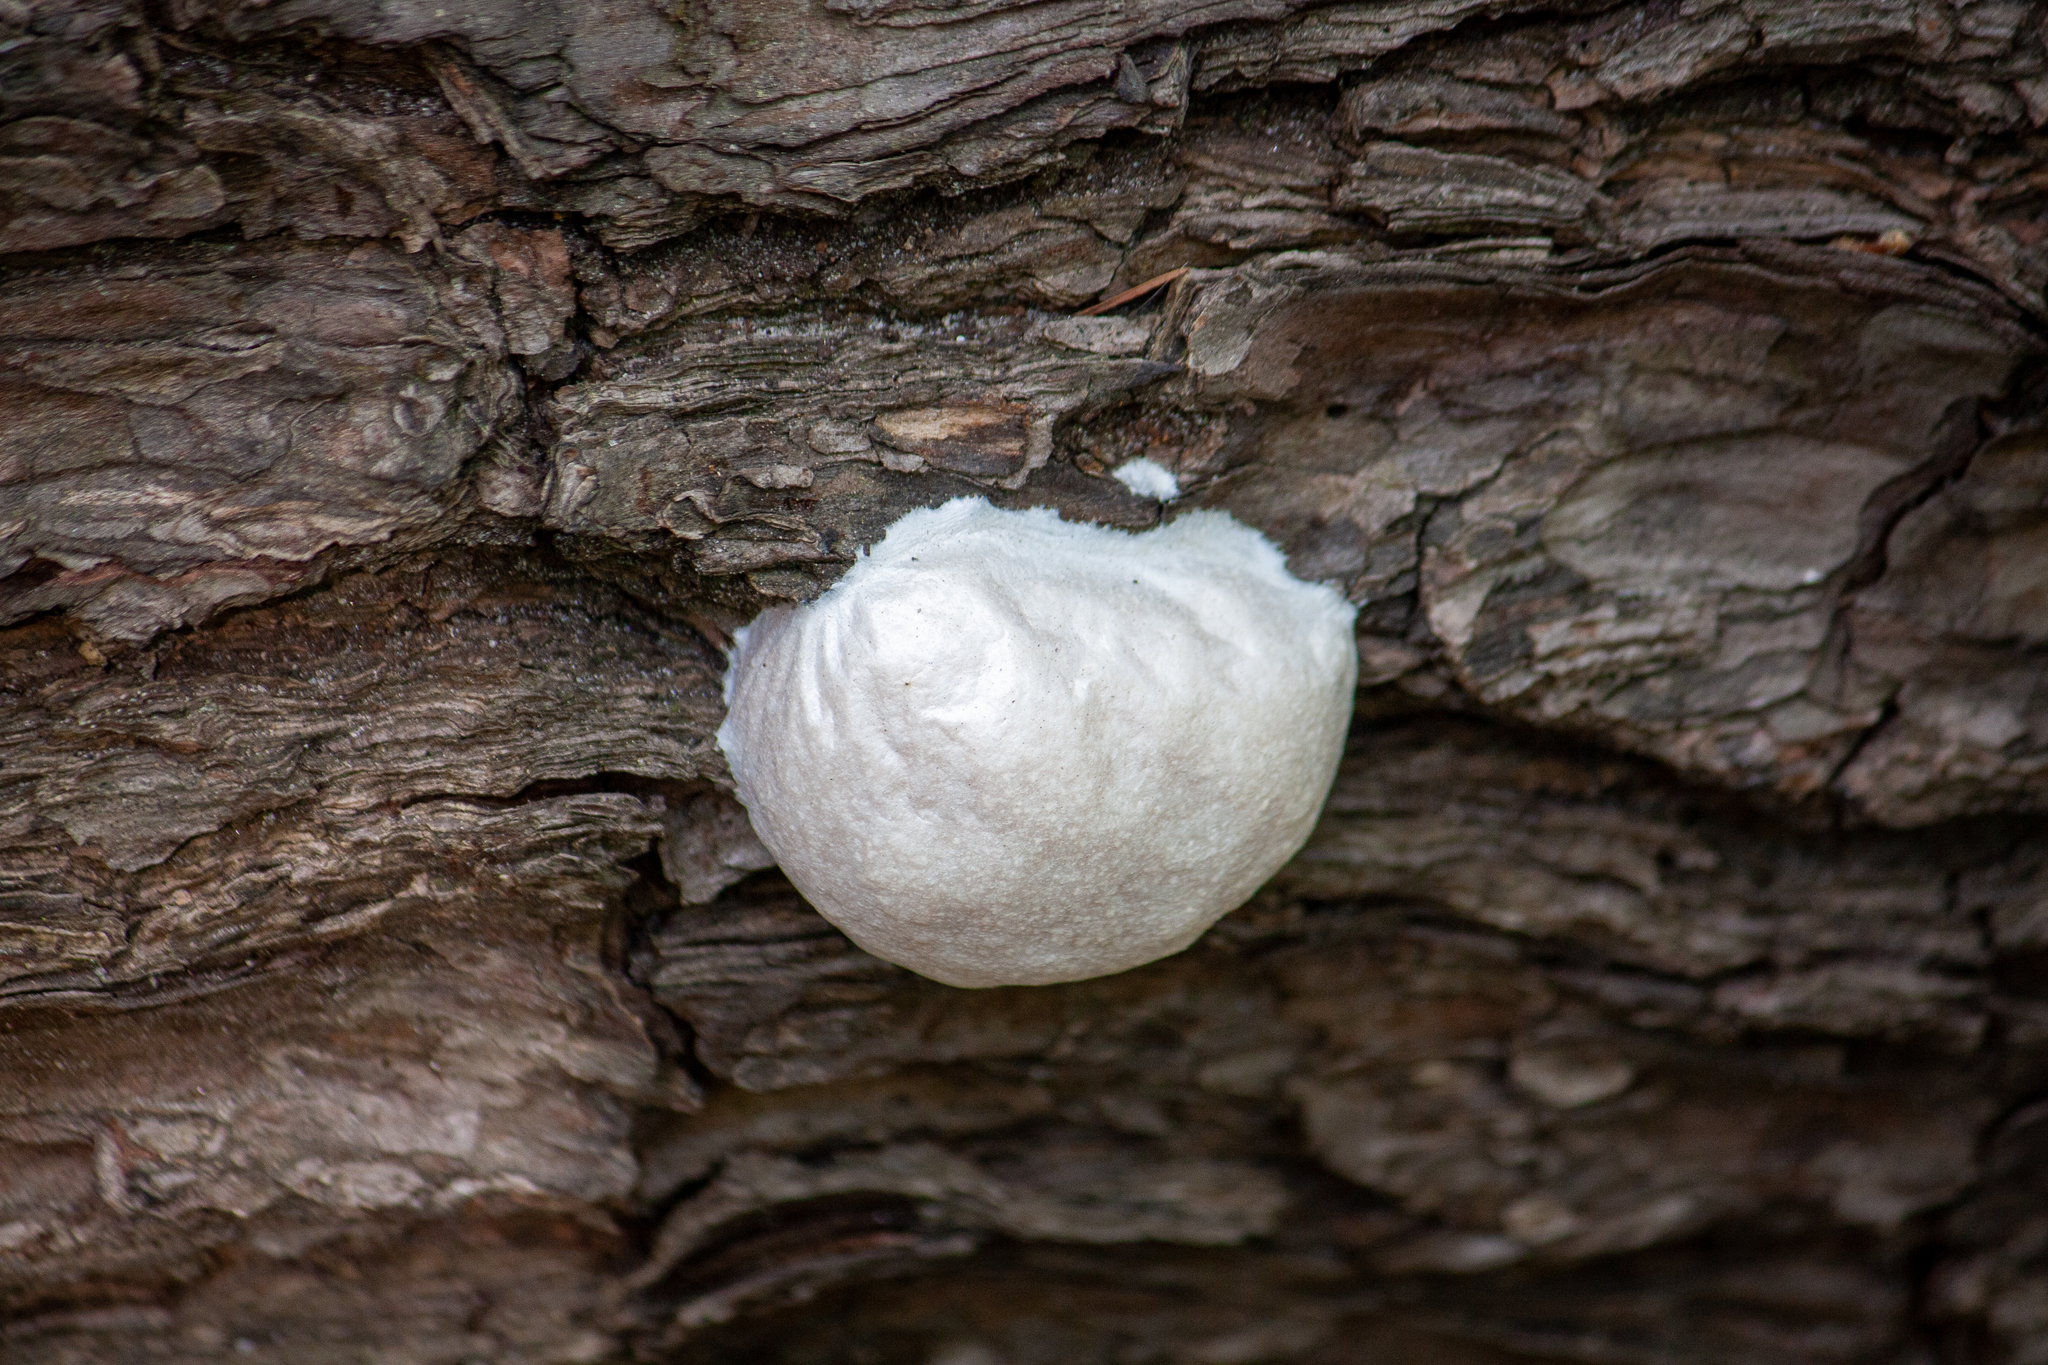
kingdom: Protozoa
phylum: Mycetozoa
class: Myxomycetes
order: Cribrariales
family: Tubiferaceae
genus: Reticularia
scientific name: Reticularia lycoperdon
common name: False puffball
